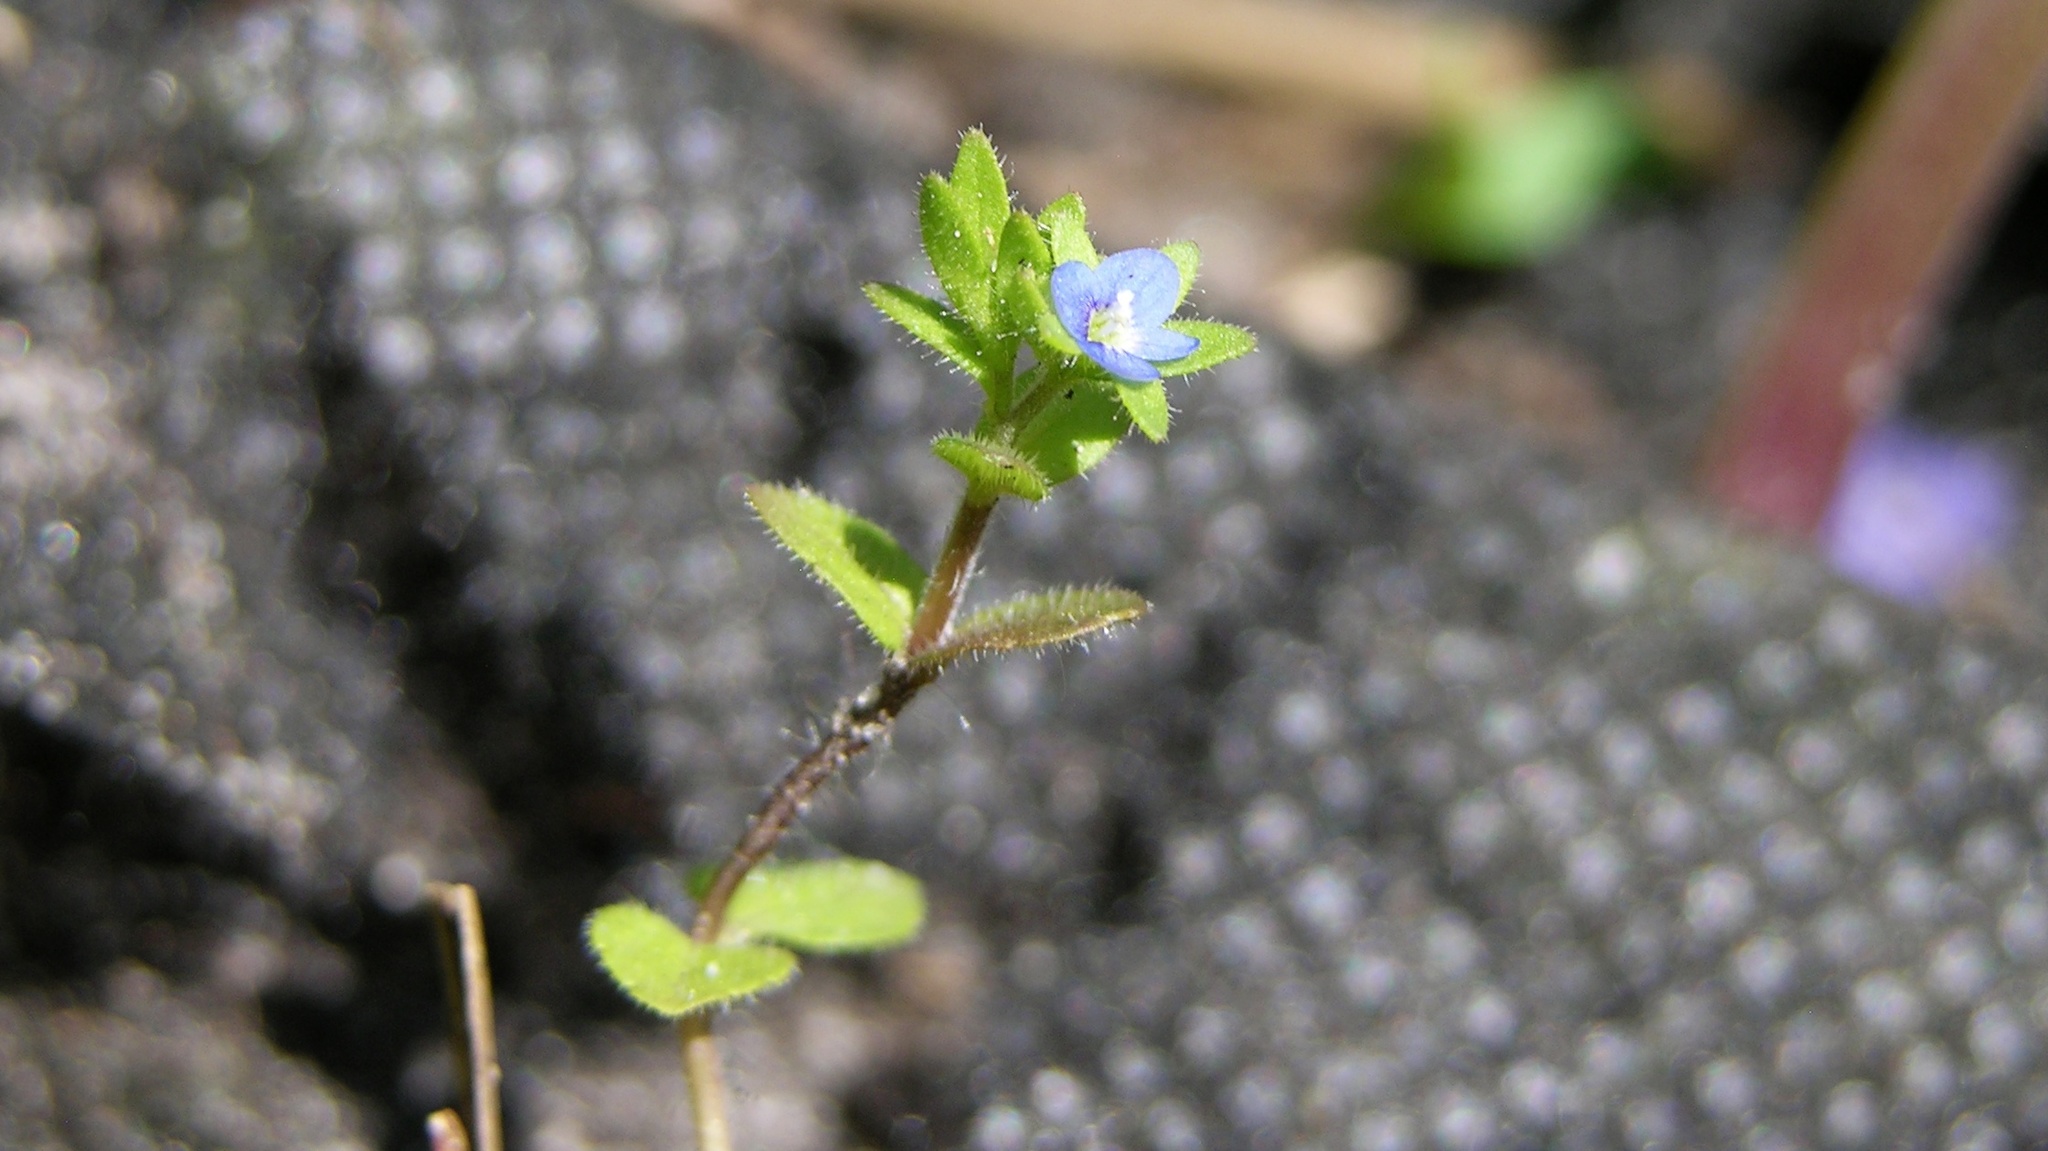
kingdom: Plantae
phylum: Tracheophyta
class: Magnoliopsida
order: Lamiales
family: Plantaginaceae
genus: Veronica
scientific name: Veronica arvensis
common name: Corn speedwell
